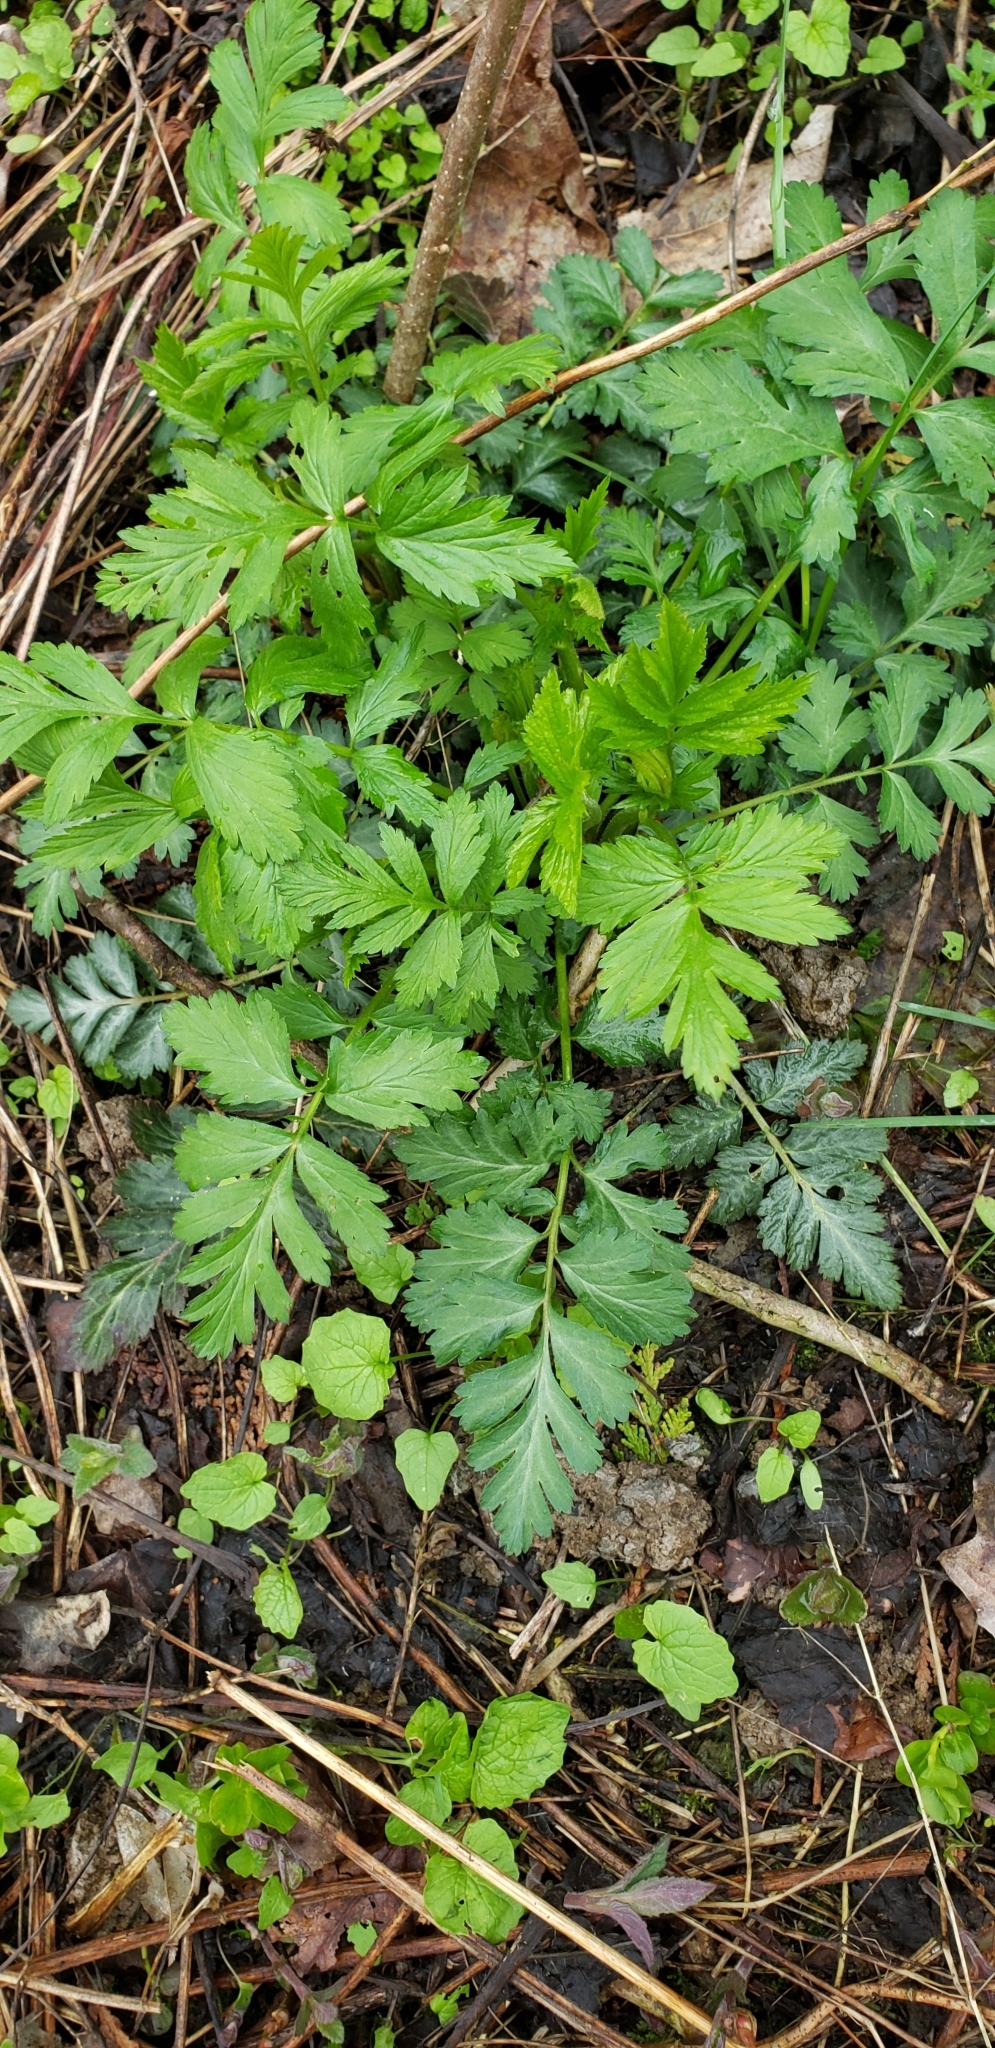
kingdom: Plantae
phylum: Tracheophyta
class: Magnoliopsida
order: Rosales
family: Rosaceae
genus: Geum
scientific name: Geum canadense
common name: White avens
